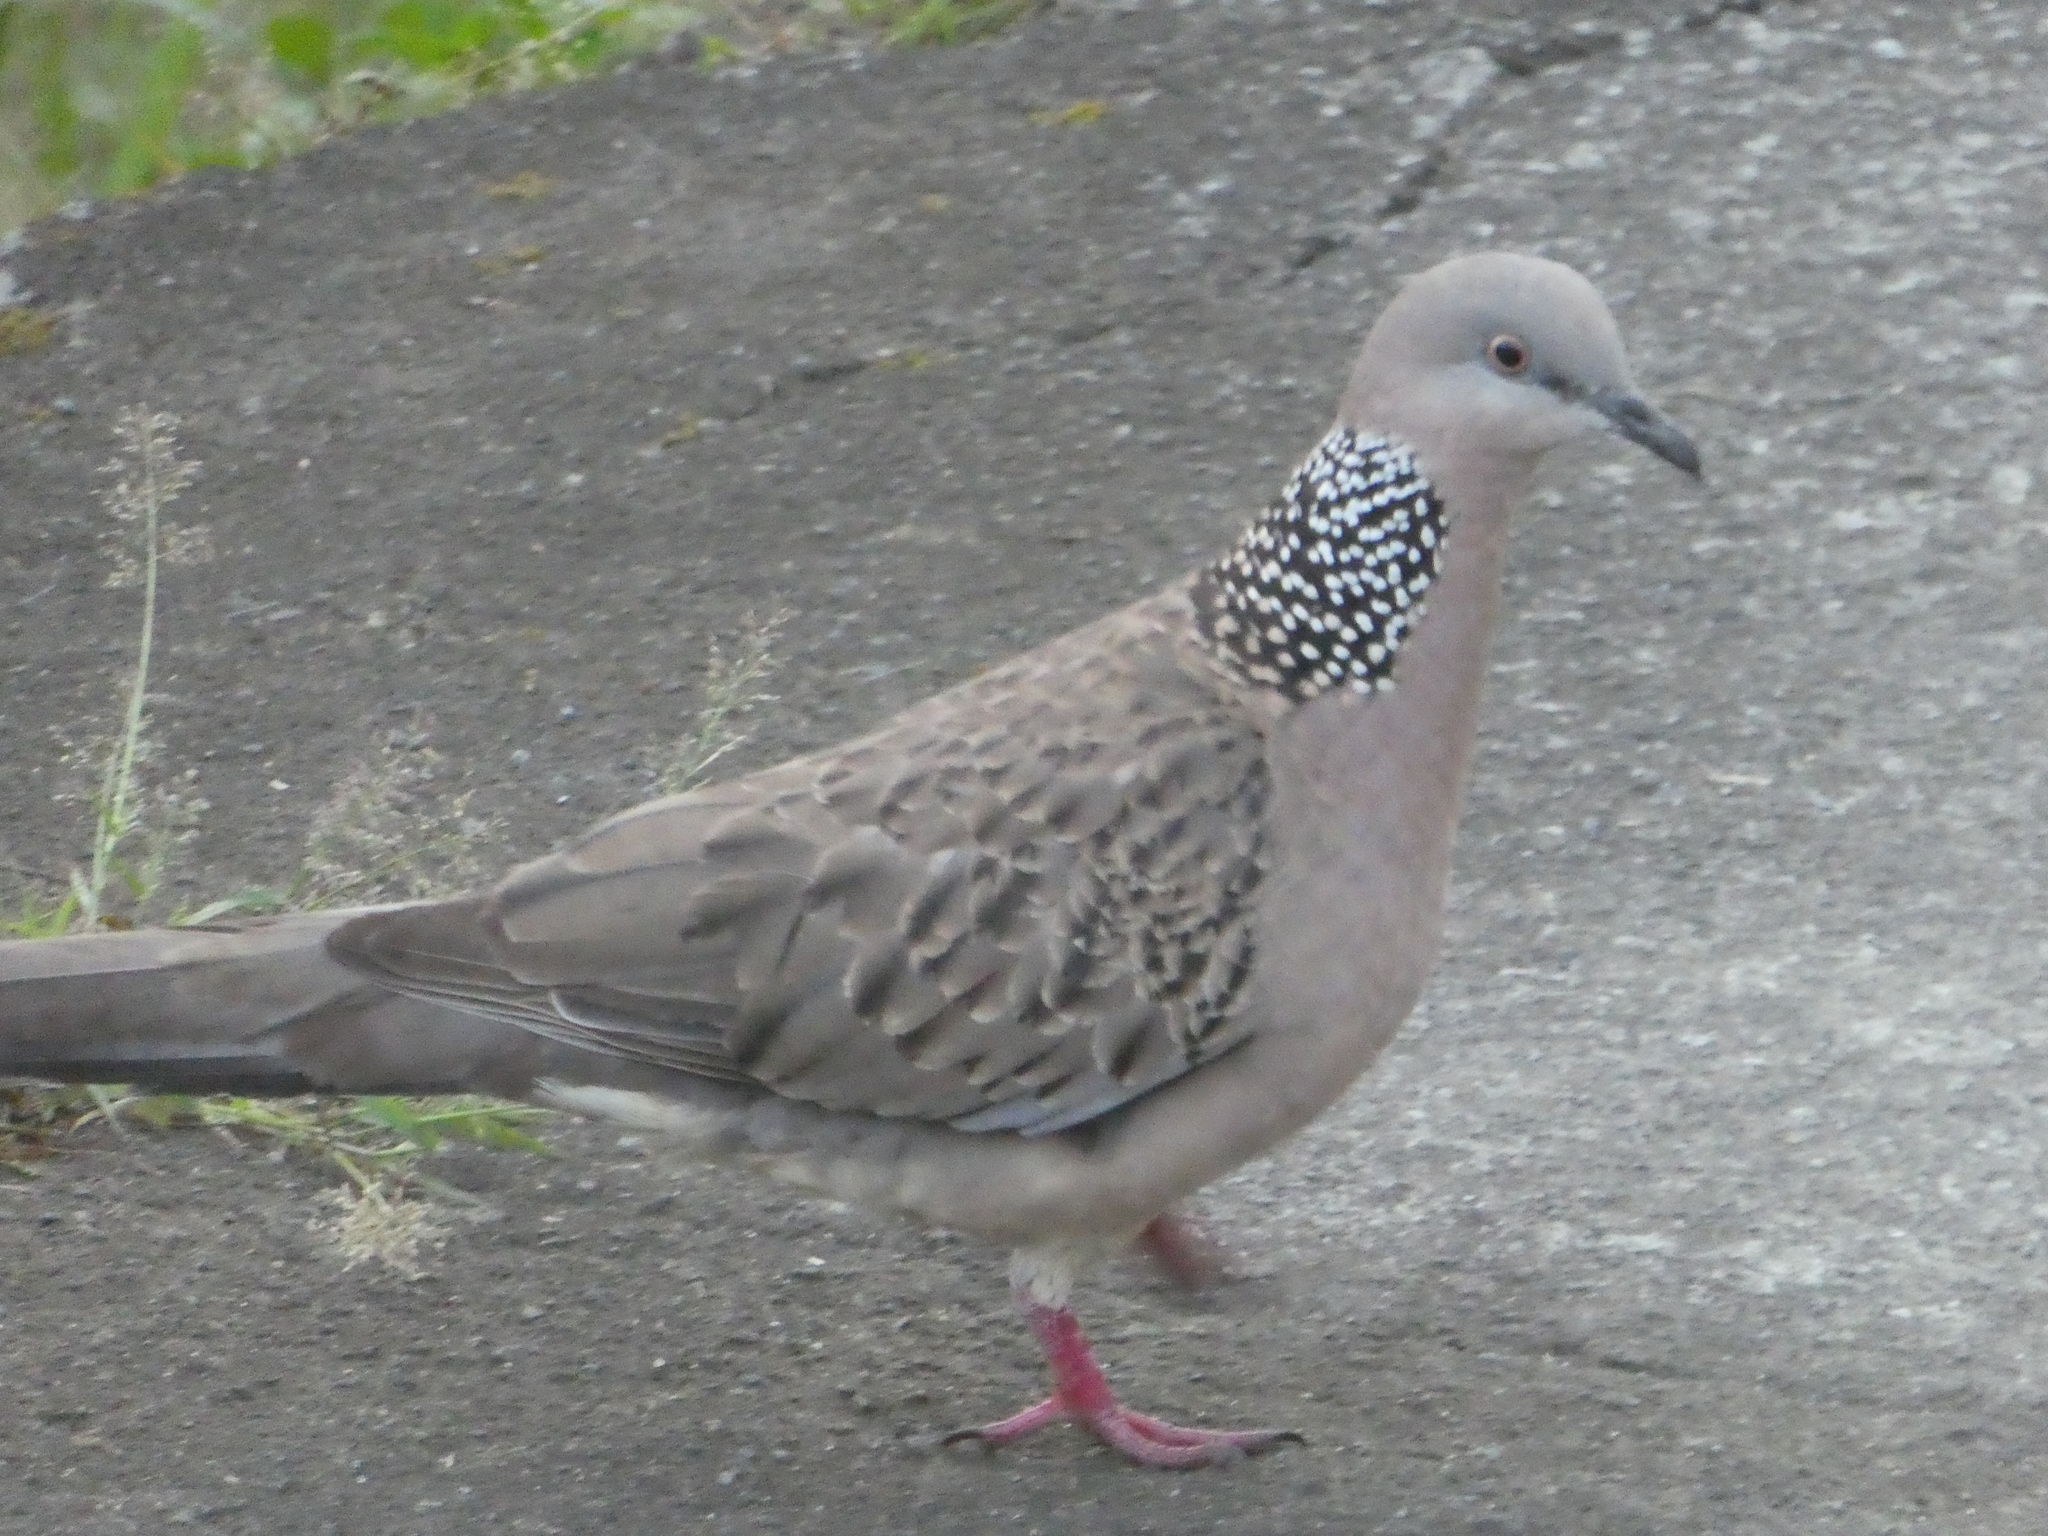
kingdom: Animalia
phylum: Chordata
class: Aves
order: Columbiformes
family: Columbidae
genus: Spilopelia
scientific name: Spilopelia chinensis
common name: Spotted dove
